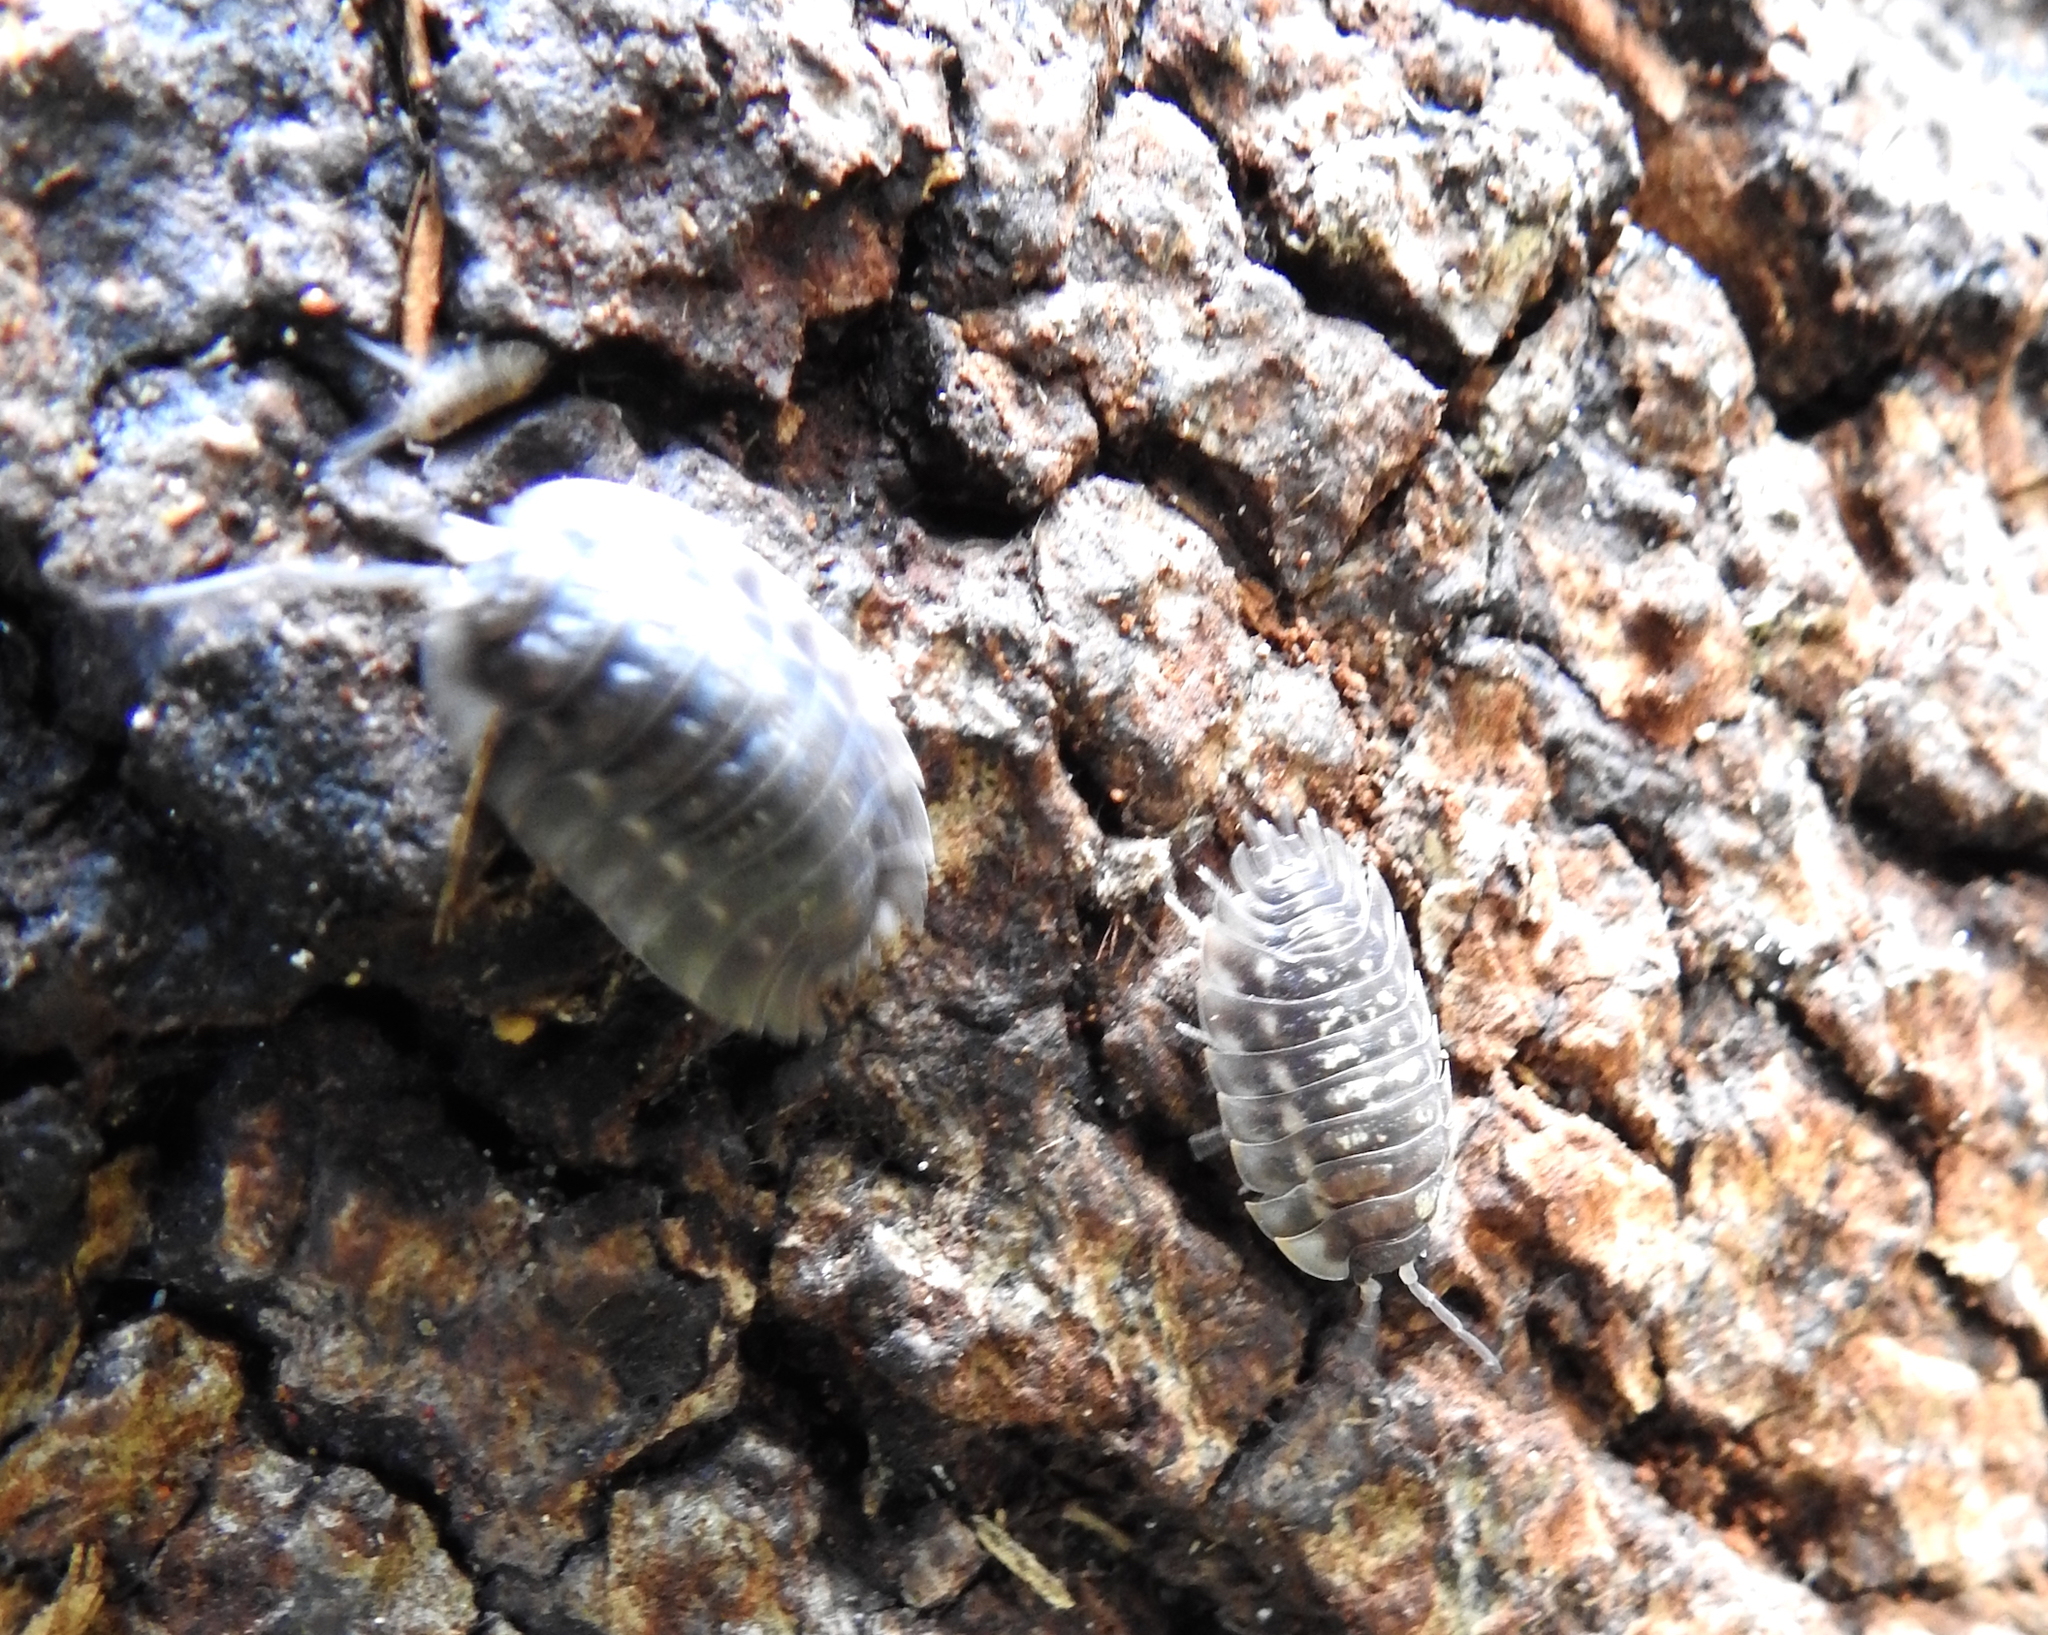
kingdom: Animalia
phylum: Arthropoda
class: Malacostraca
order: Isopoda
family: Oniscidae
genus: Oniscus
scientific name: Oniscus asellus
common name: Common shiny woodlouse
